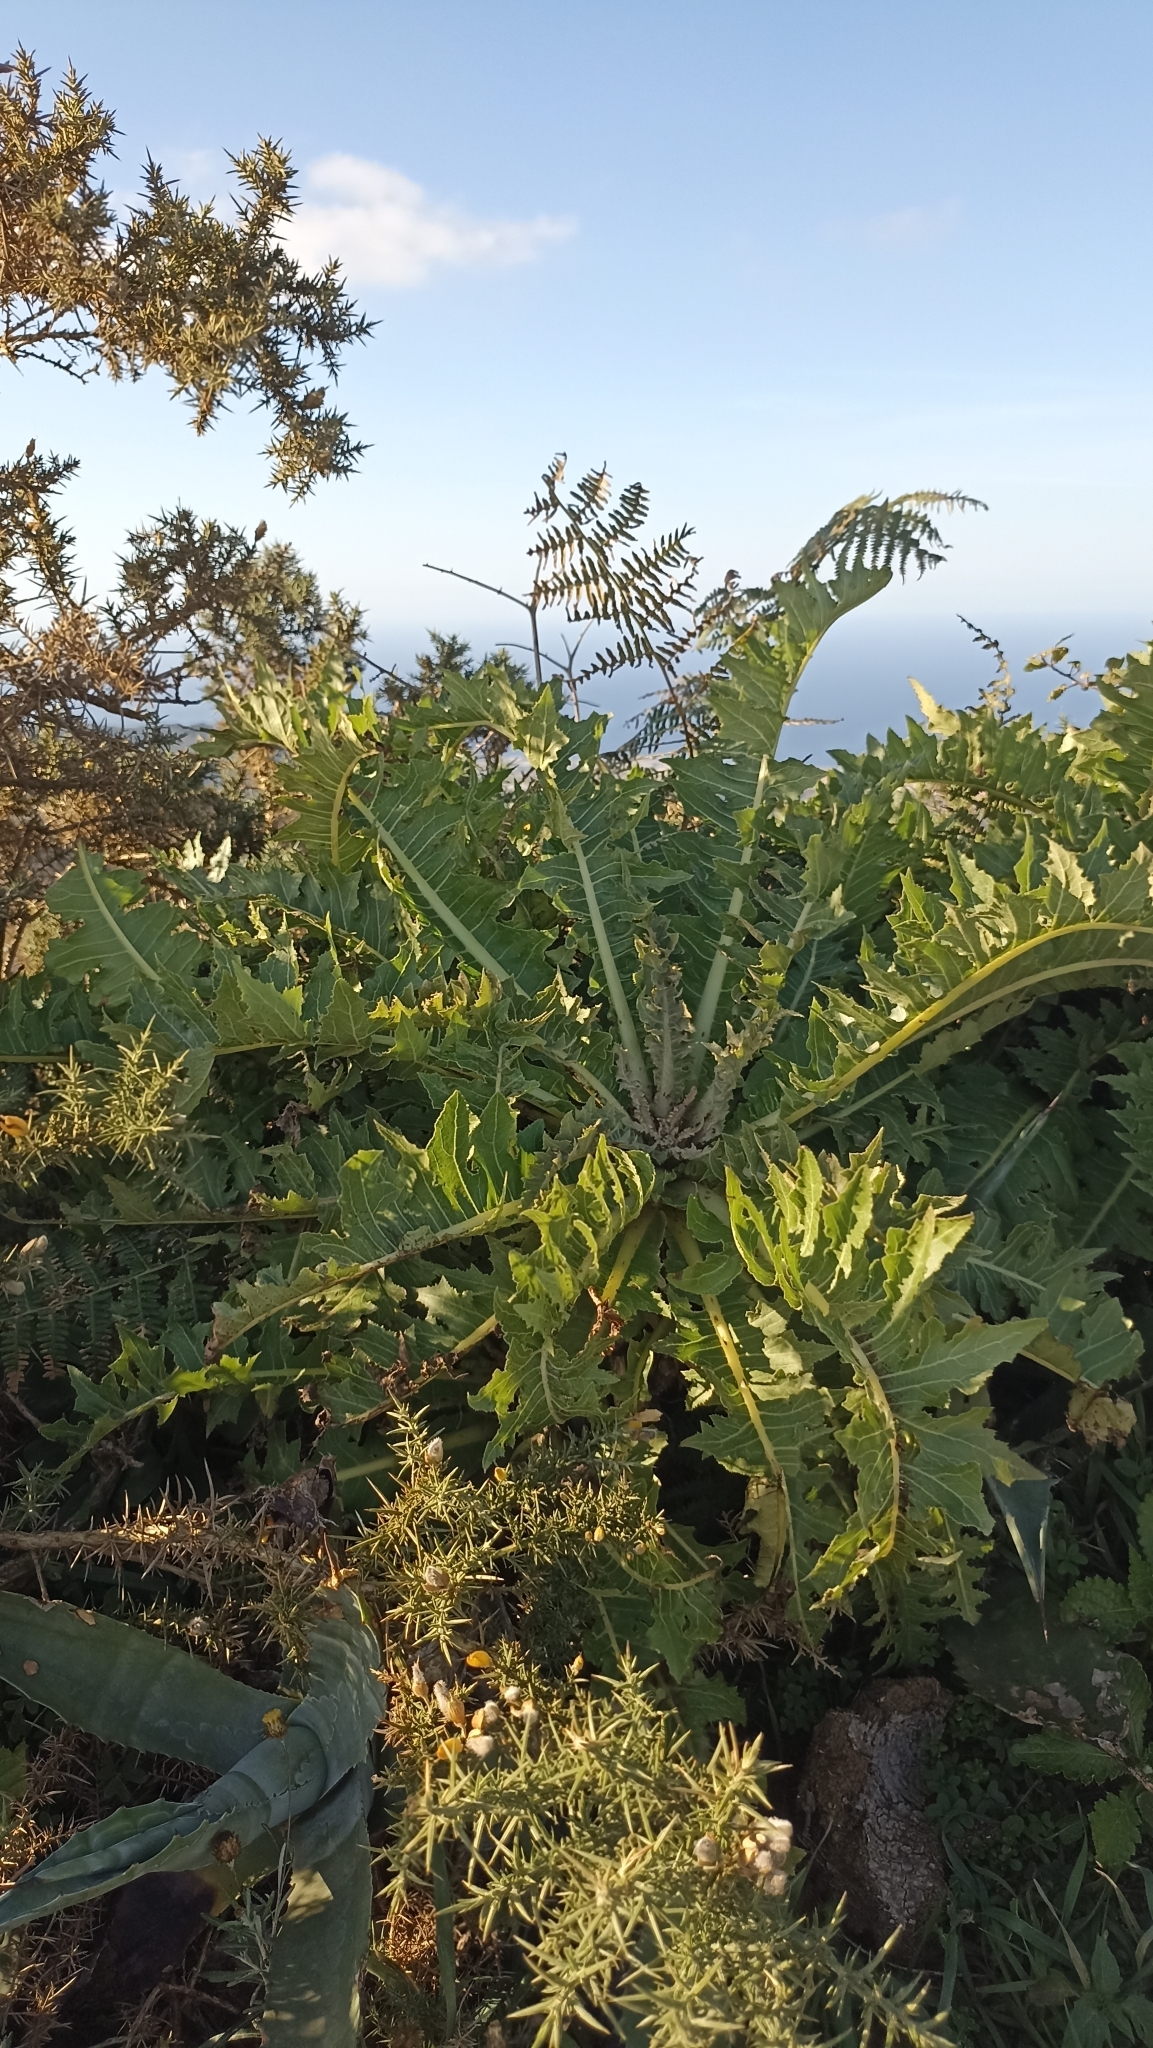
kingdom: Plantae
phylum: Tracheophyta
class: Magnoliopsida
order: Asterales
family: Asteraceae
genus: Sonchus
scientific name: Sonchus acaulis
